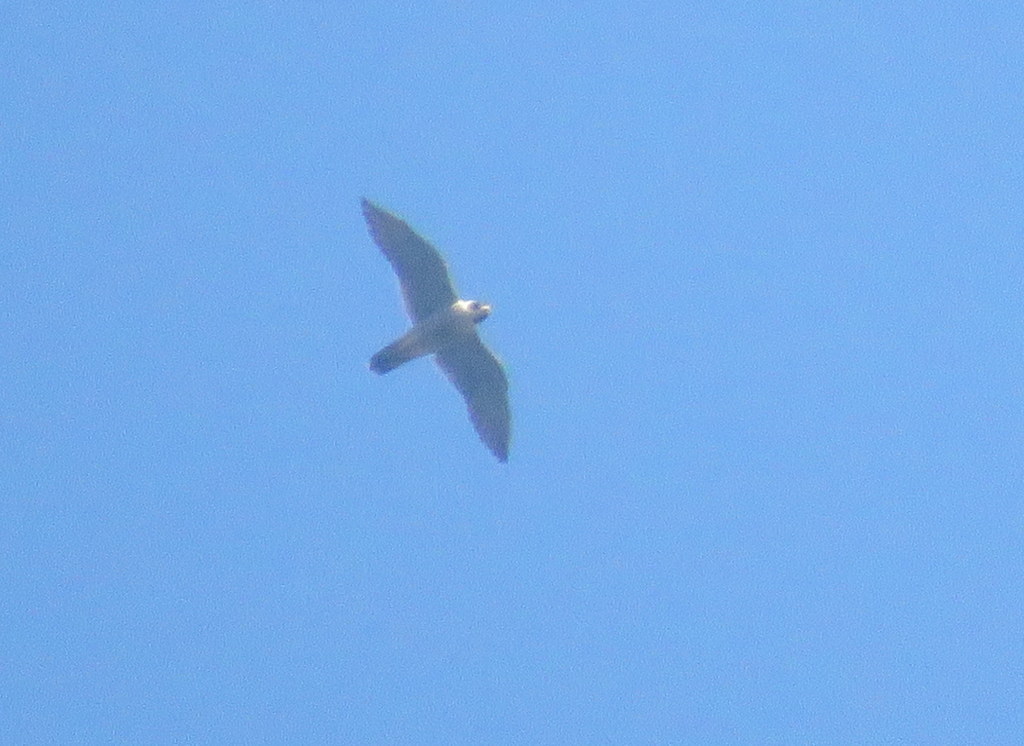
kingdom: Animalia
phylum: Chordata
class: Aves
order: Falconiformes
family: Falconidae
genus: Falco
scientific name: Falco peregrinus
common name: Peregrine falcon
